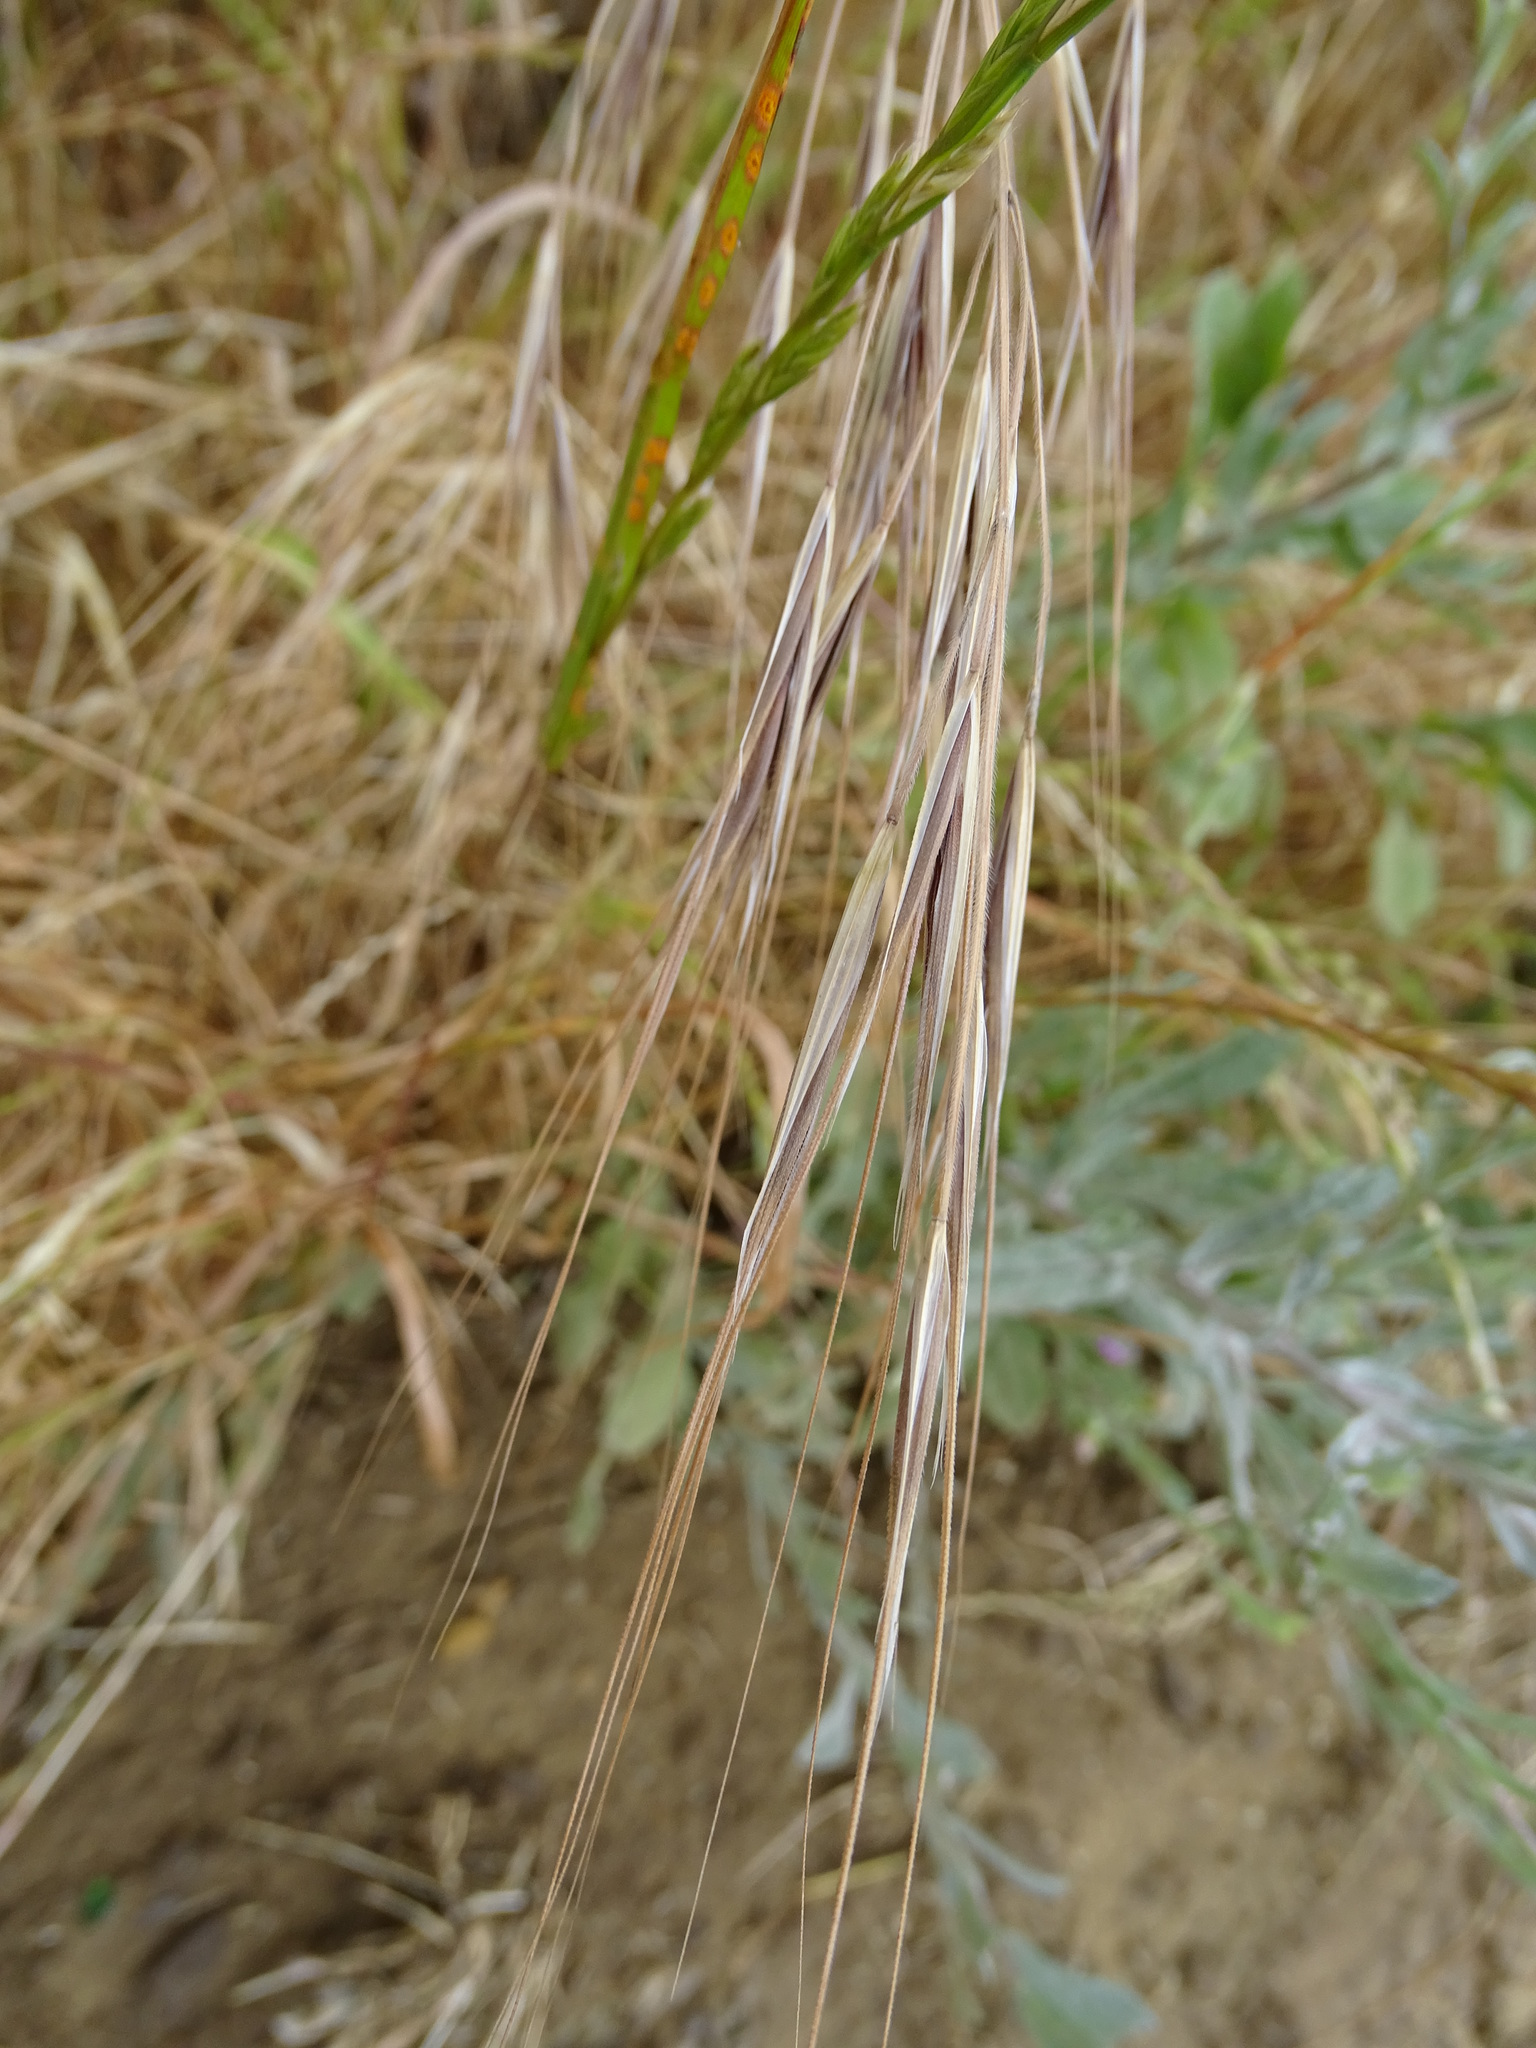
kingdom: Plantae
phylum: Tracheophyta
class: Liliopsida
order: Poales
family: Poaceae
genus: Bromus
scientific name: Bromus diandrus
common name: Ripgut brome
